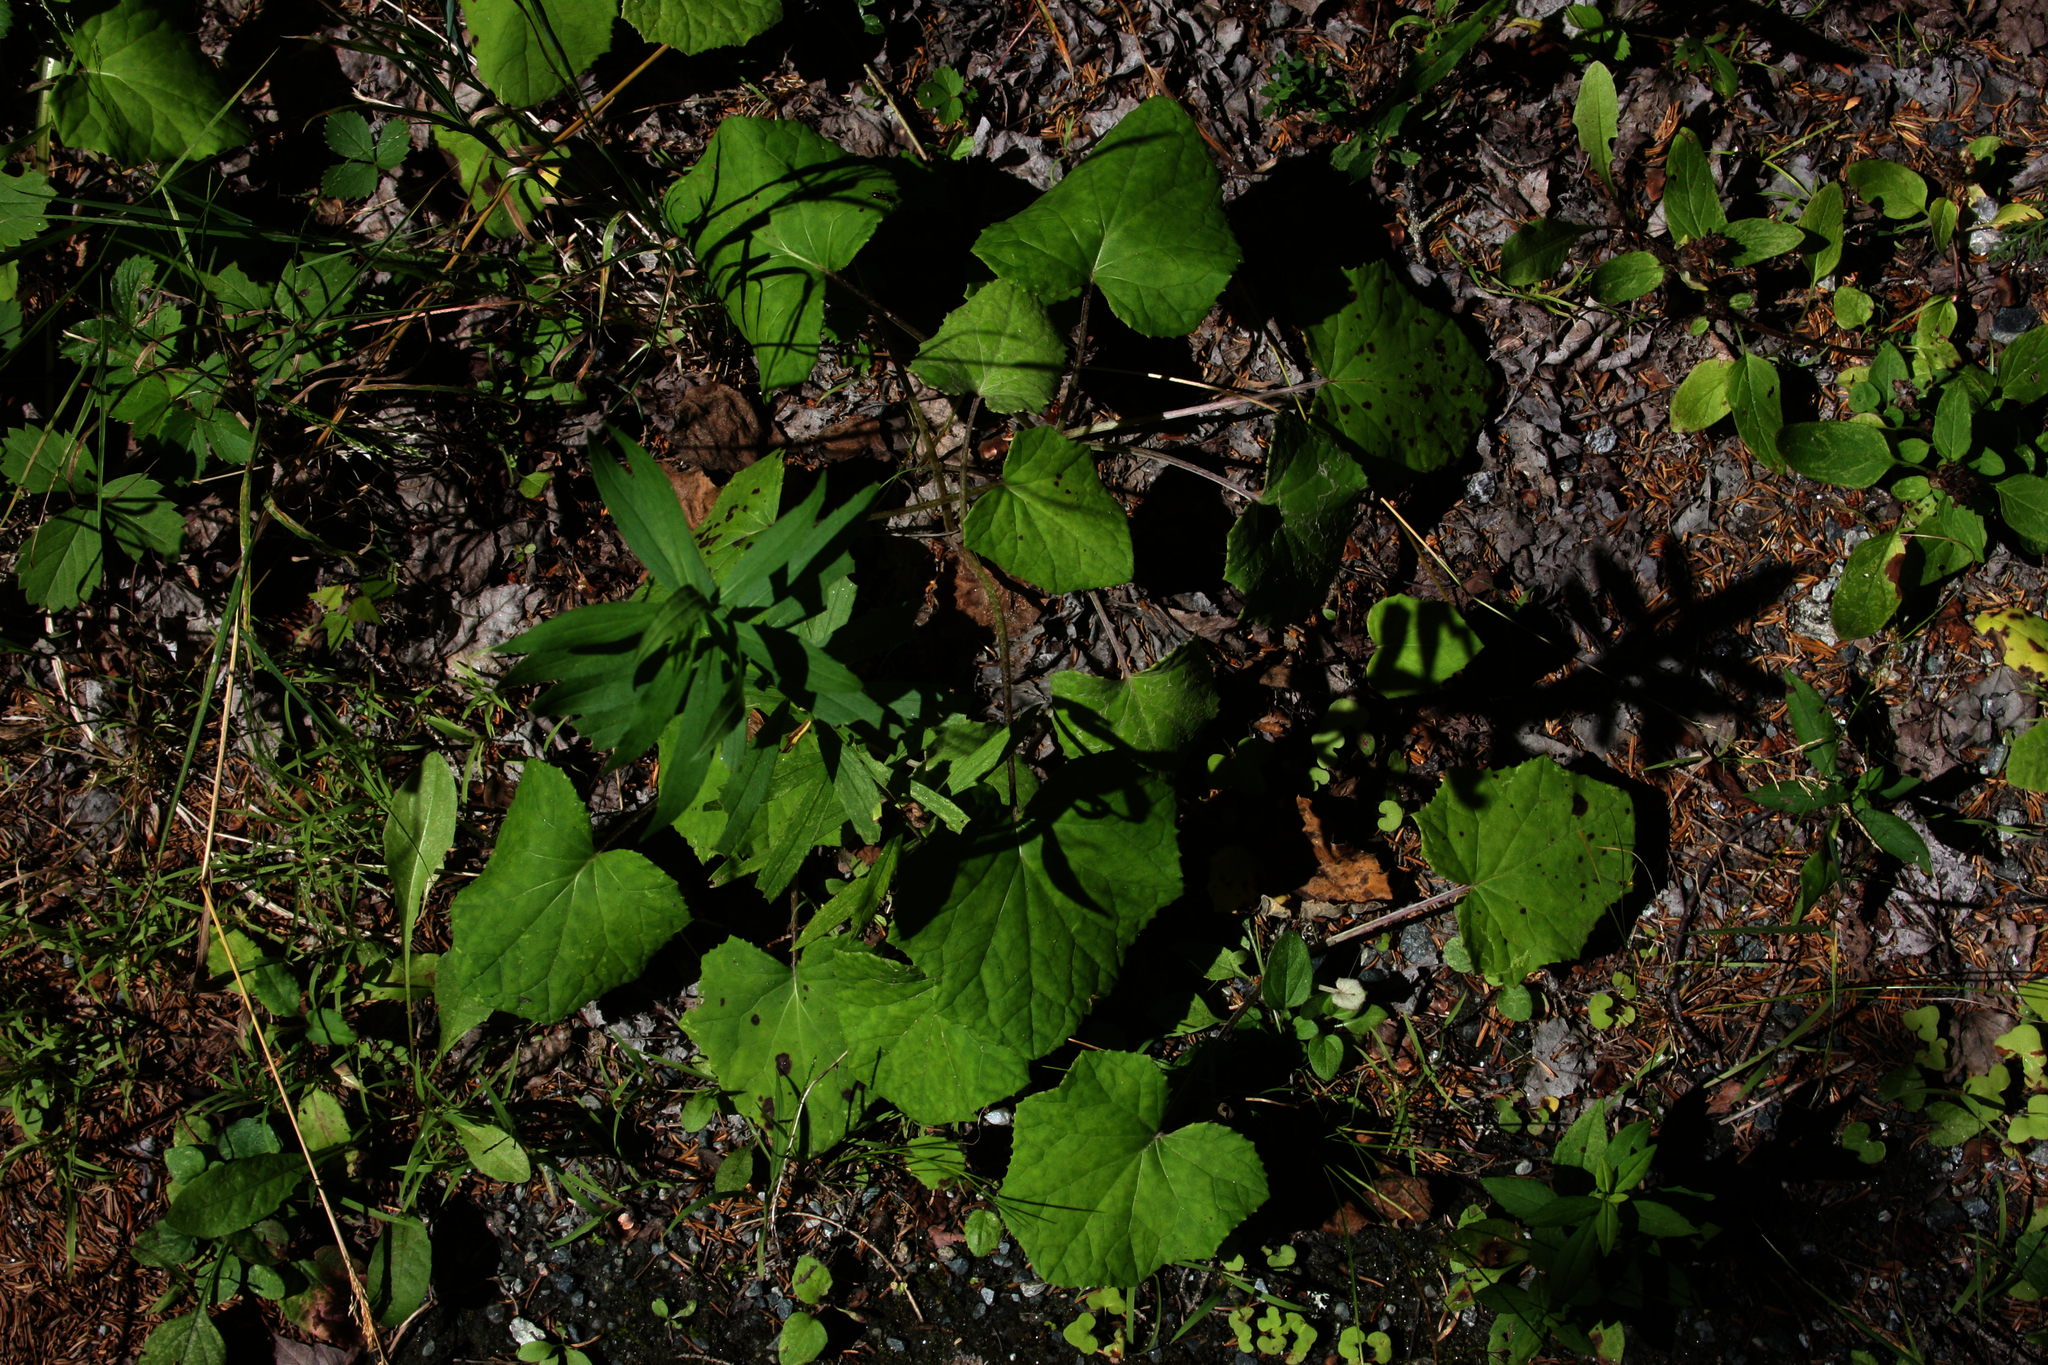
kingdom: Plantae
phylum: Tracheophyta
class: Magnoliopsida
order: Asterales
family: Asteraceae
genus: Tussilago
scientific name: Tussilago farfara
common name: Coltsfoot
